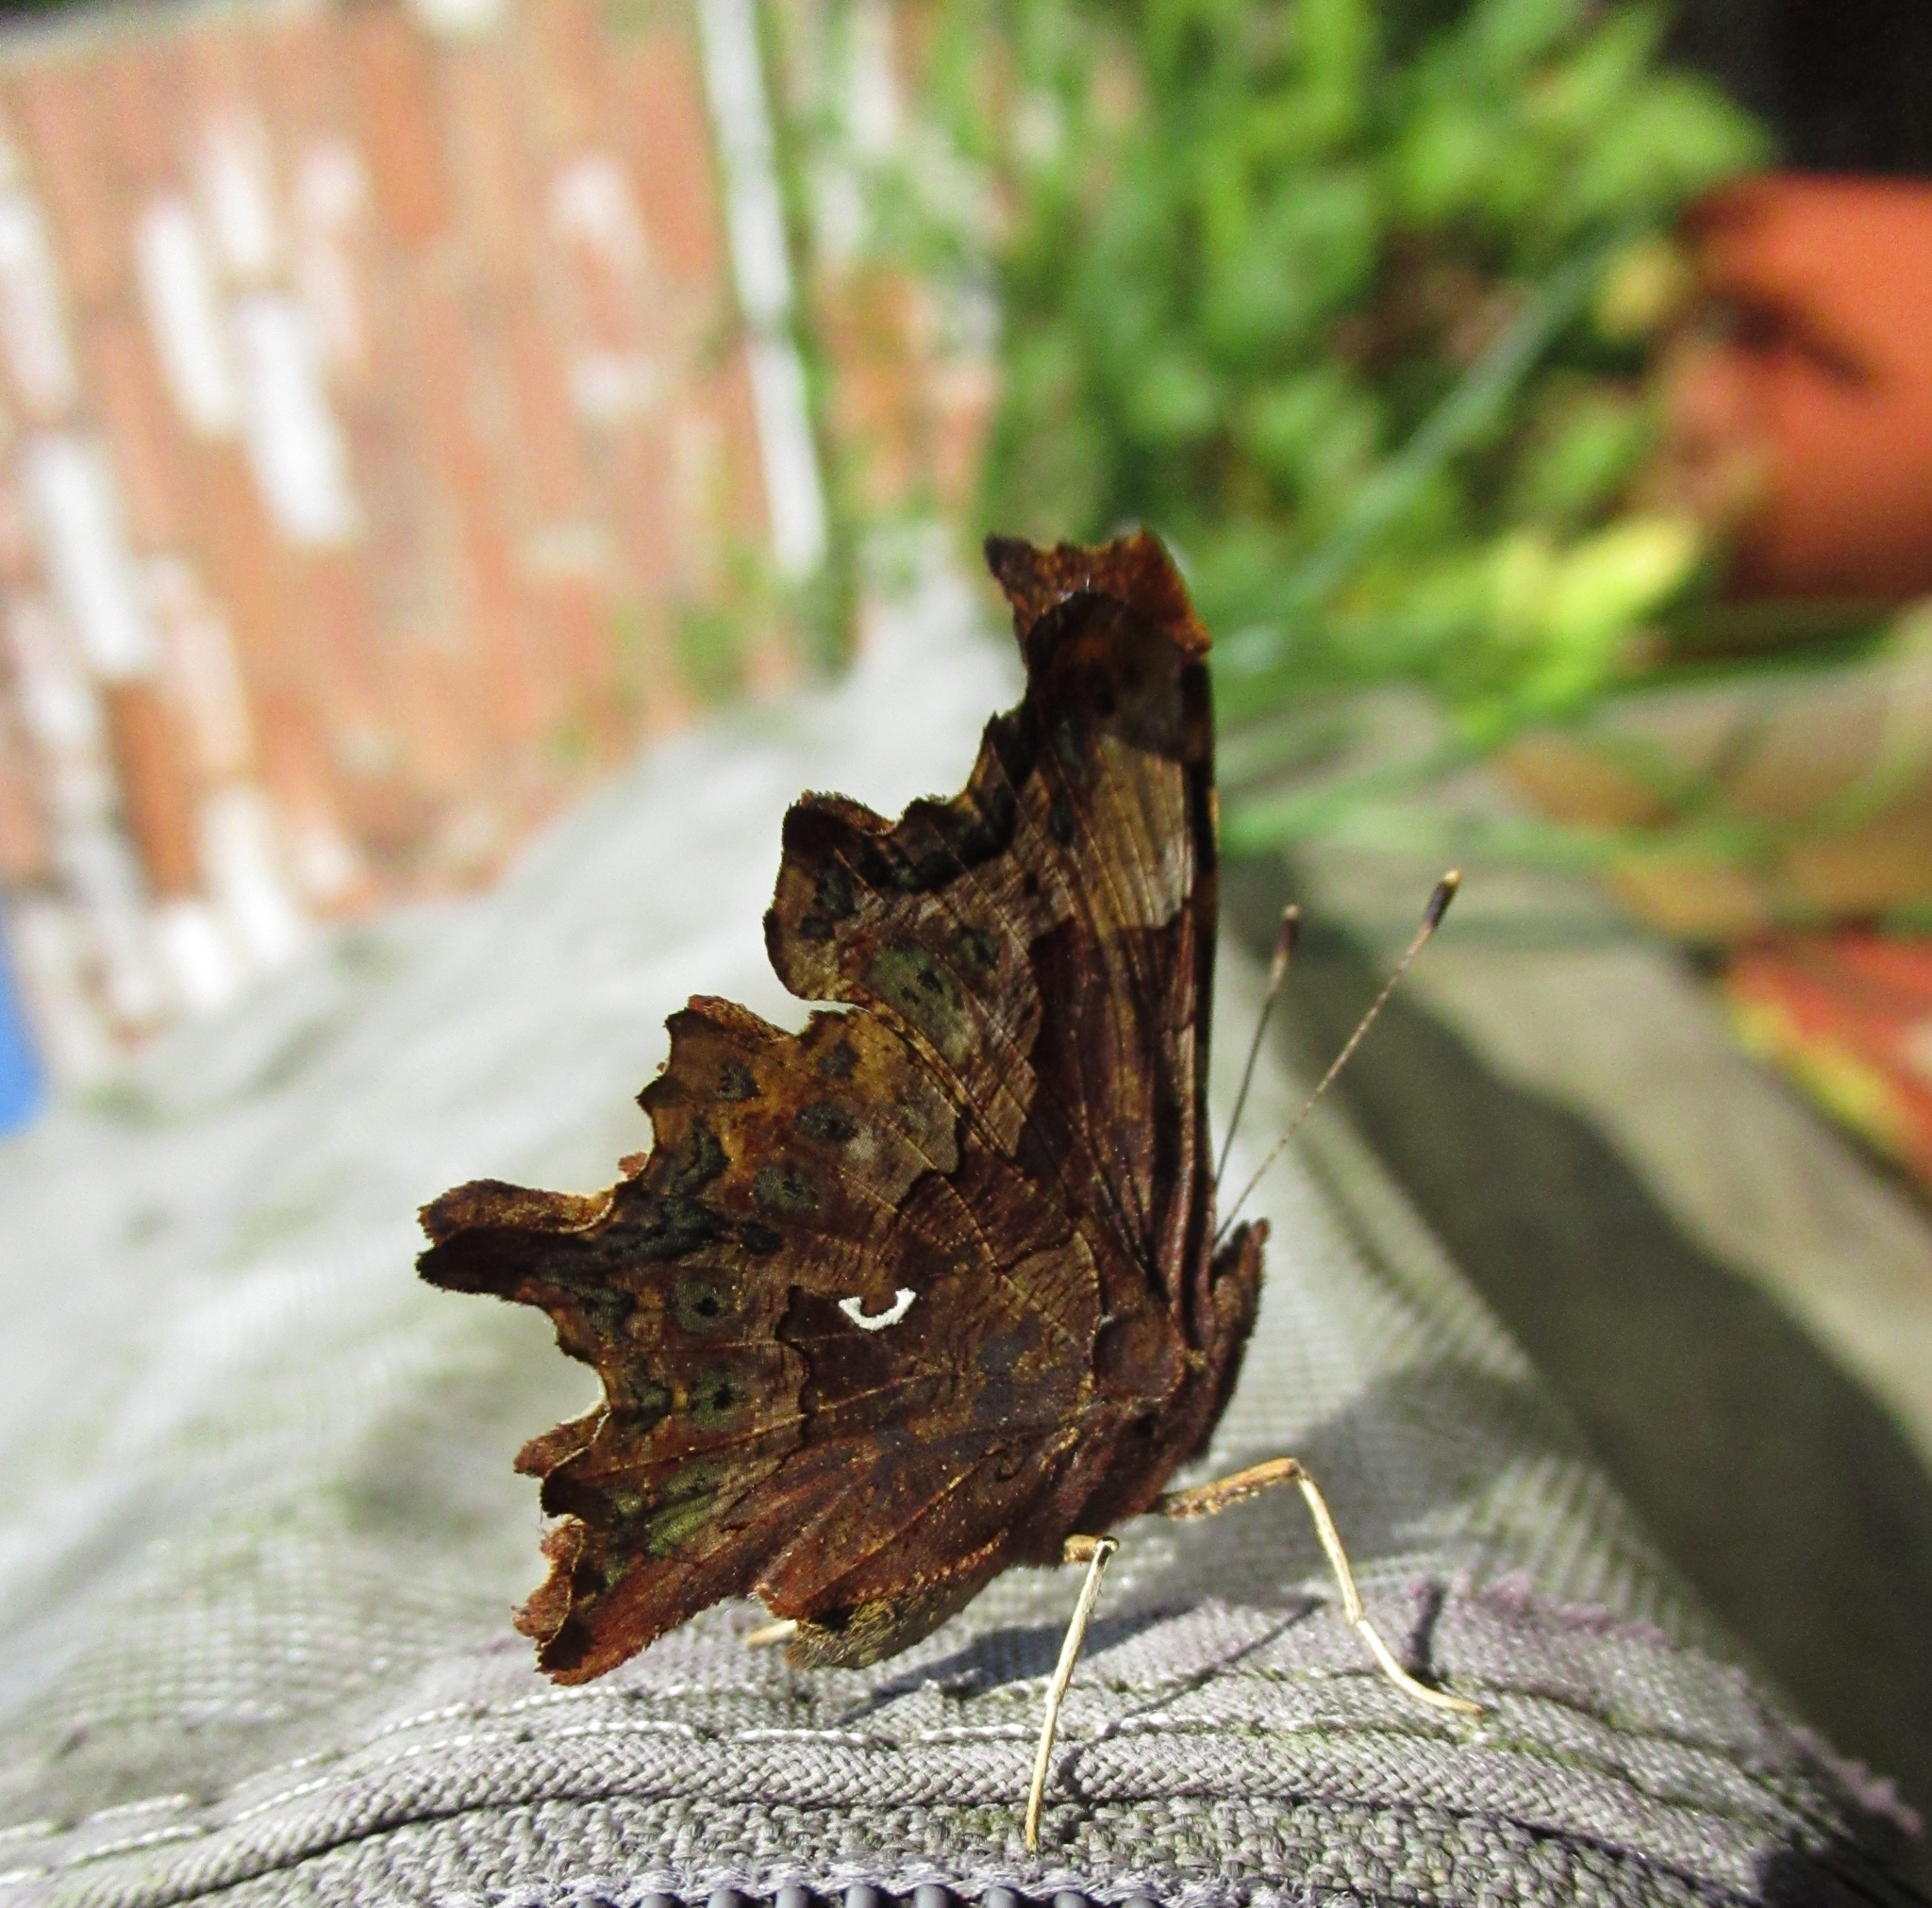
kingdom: Animalia
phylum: Arthropoda
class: Insecta
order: Lepidoptera
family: Nymphalidae
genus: Polygonia
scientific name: Polygonia c-album
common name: Comma
